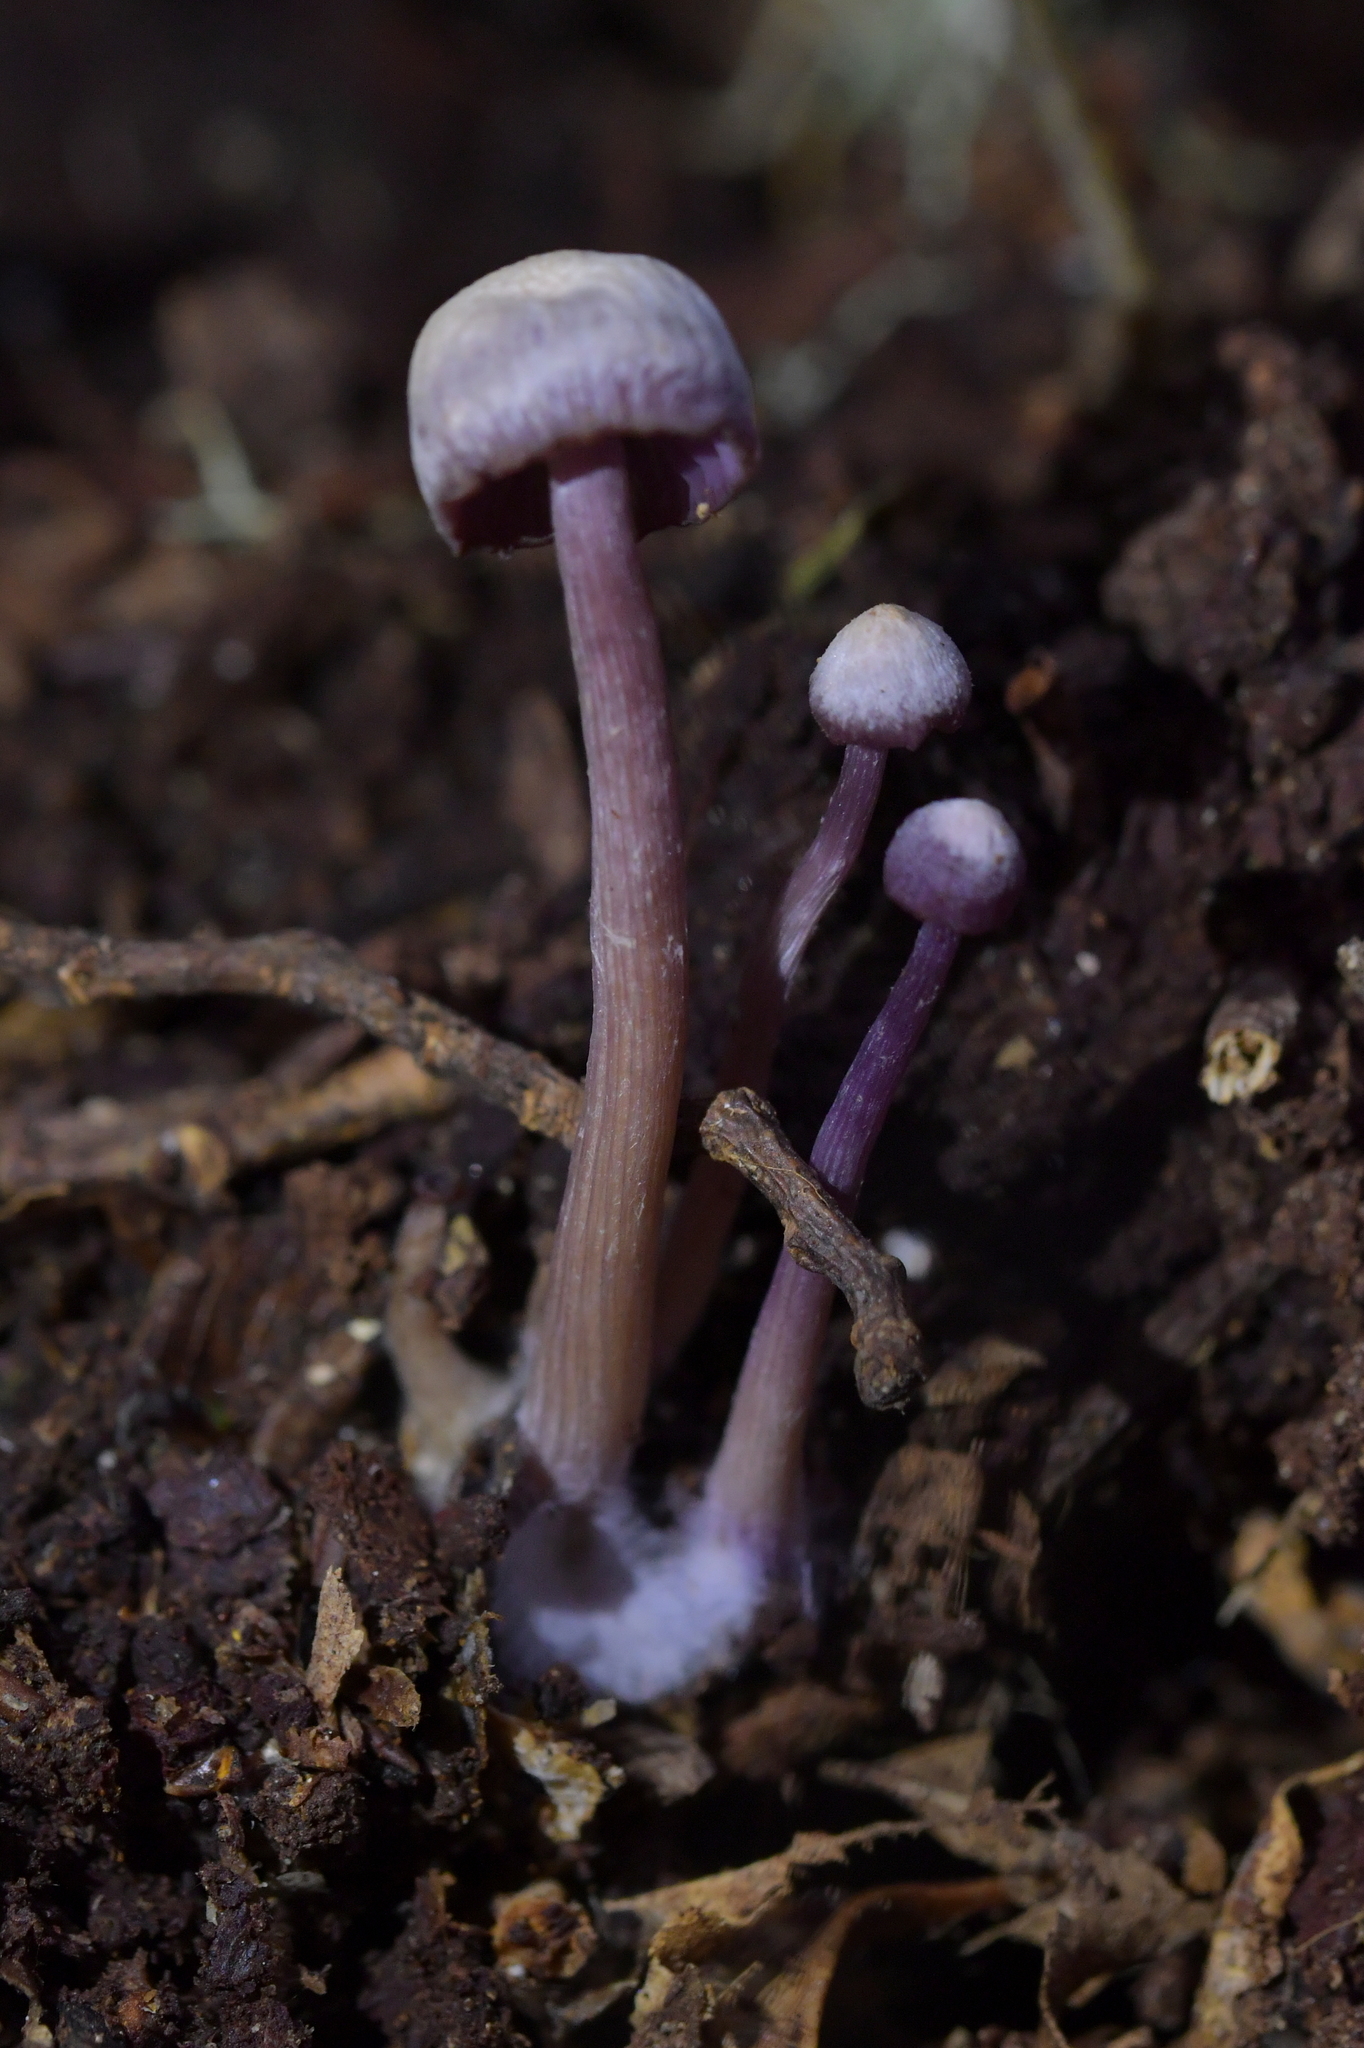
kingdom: Fungi
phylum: Basidiomycota
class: Agaricomycetes
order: Agaricales
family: Hydnangiaceae
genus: Laccaria
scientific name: Laccaria masoniae
